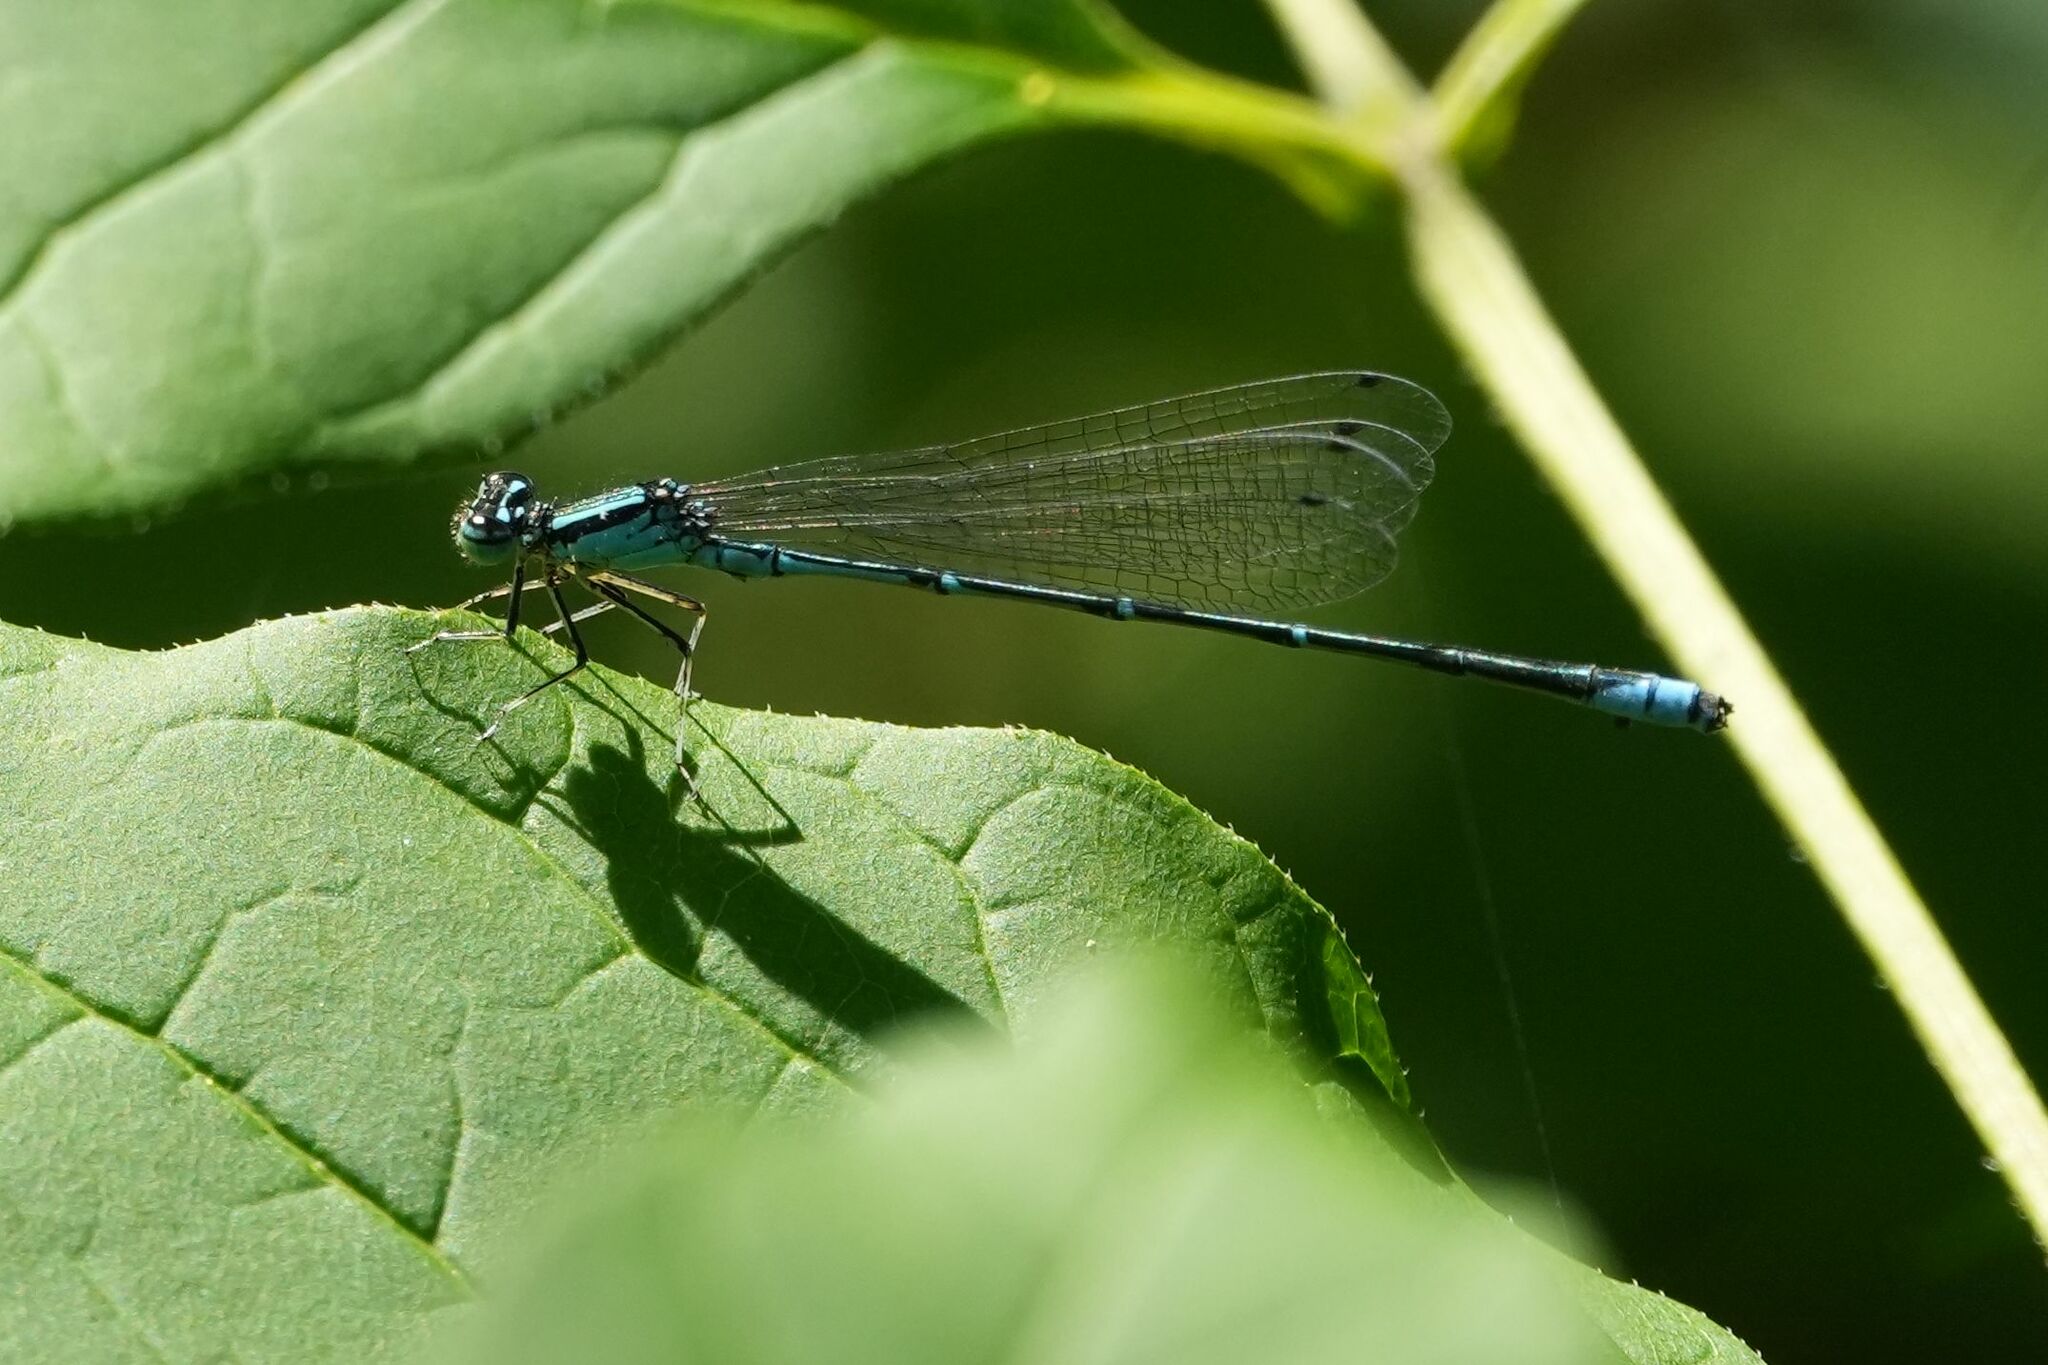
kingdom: Animalia
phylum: Arthropoda
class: Insecta
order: Odonata
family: Coenagrionidae
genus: Enallagma
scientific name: Enallagma exsulans
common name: Stream bluet
